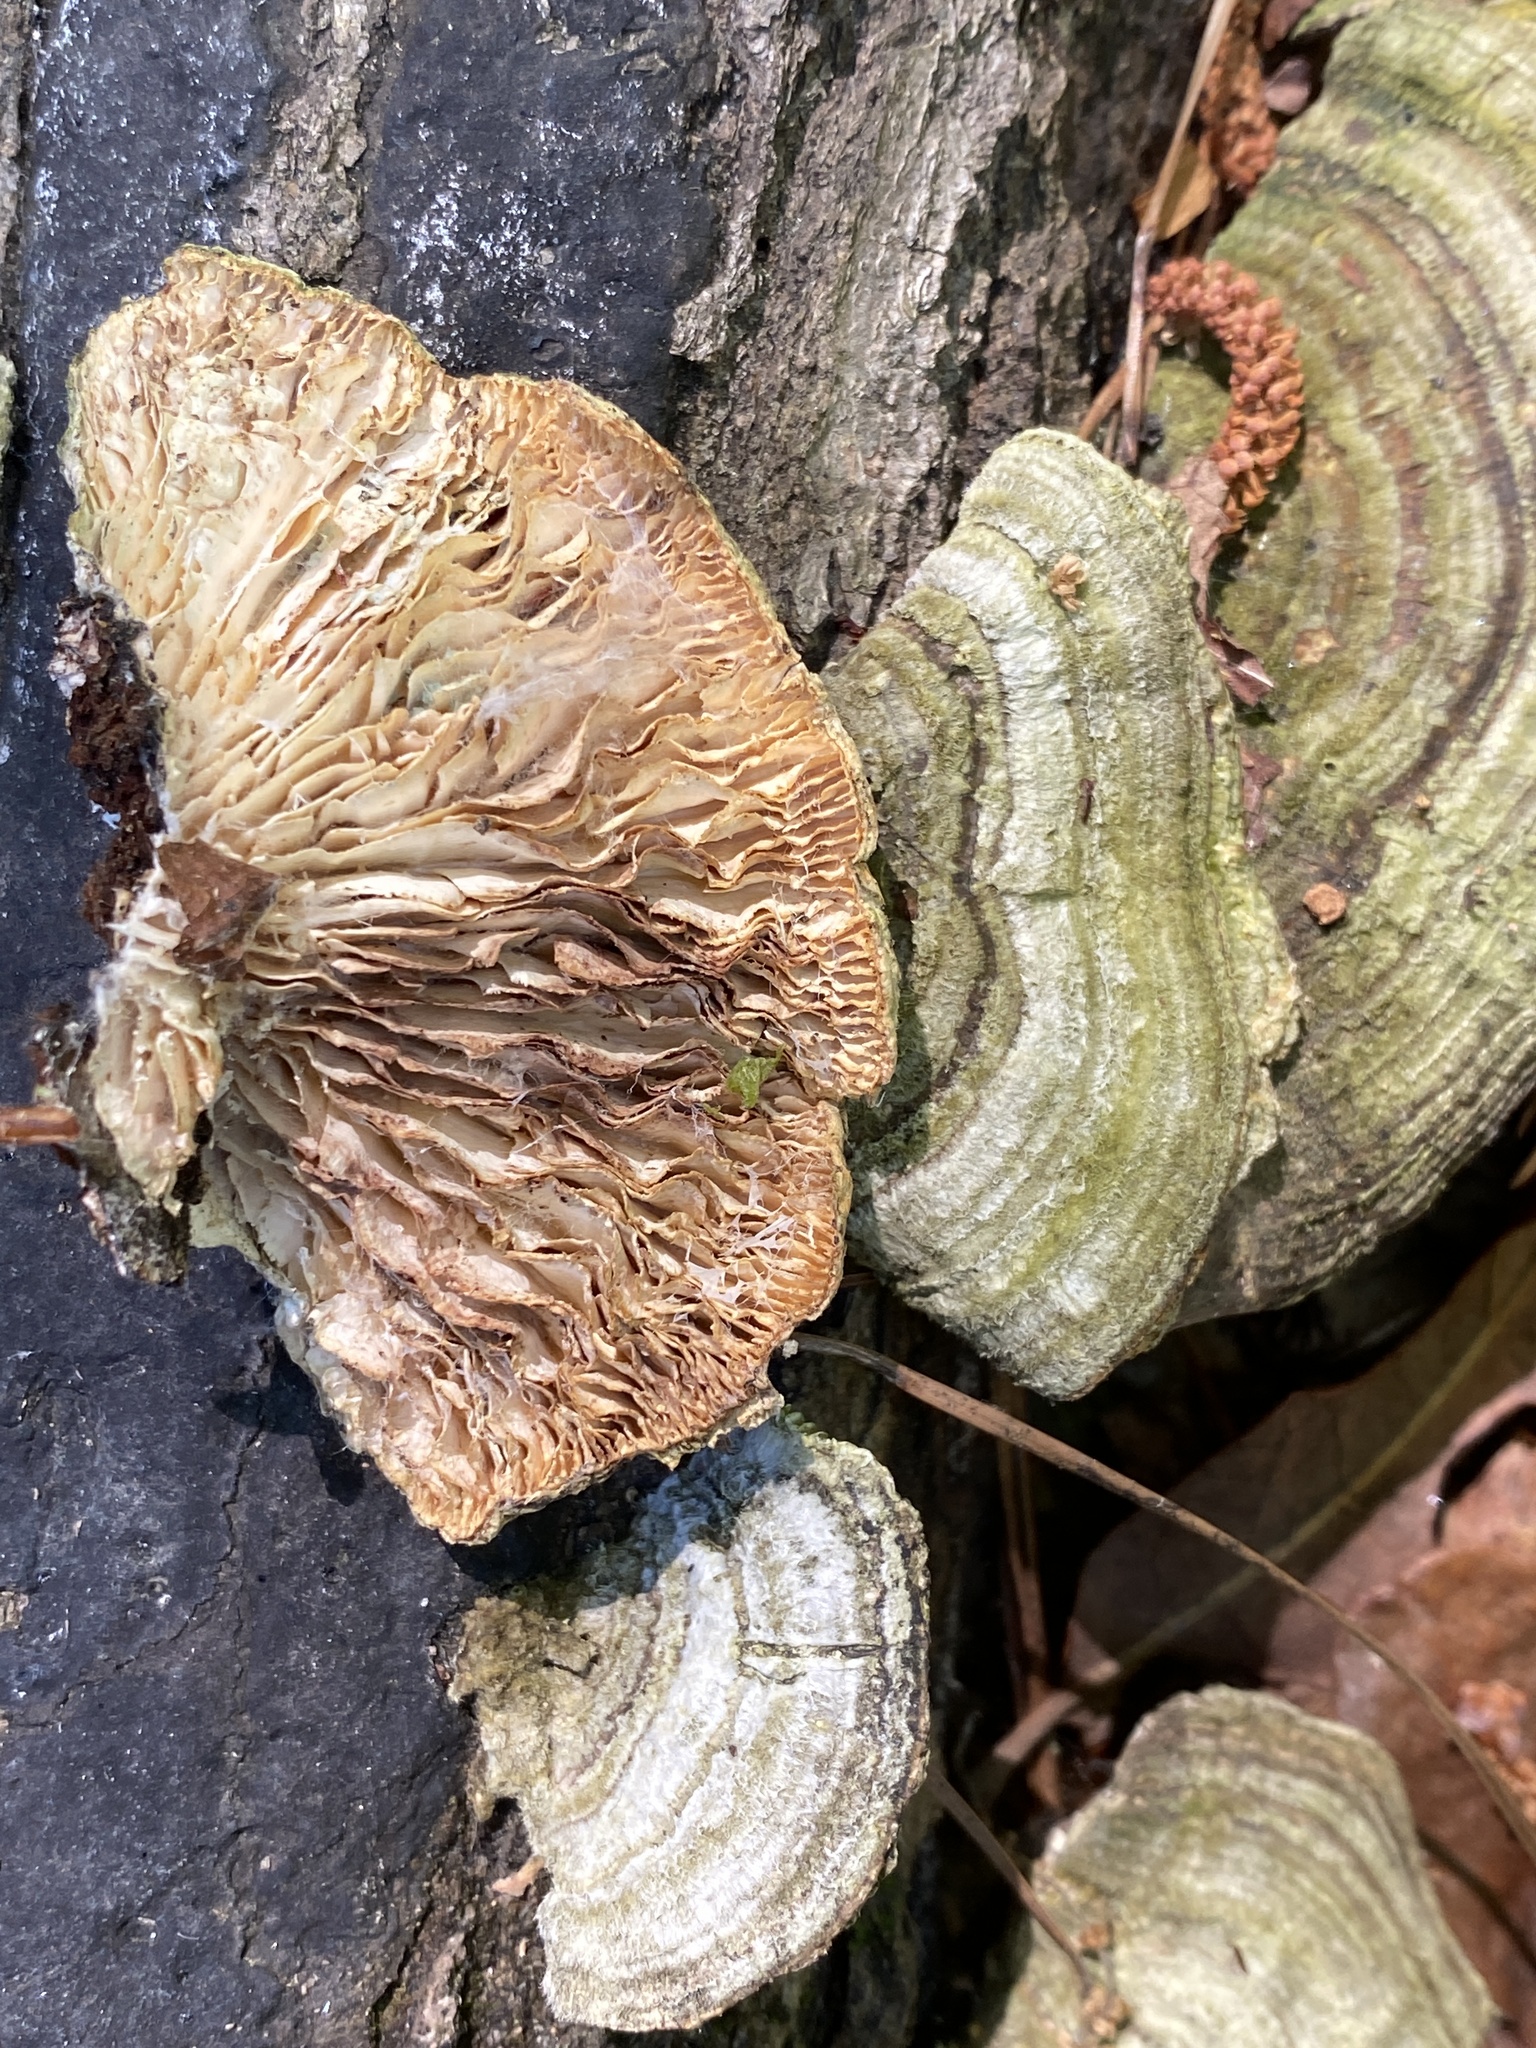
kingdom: Fungi
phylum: Basidiomycota
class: Agaricomycetes
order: Polyporales
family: Polyporaceae
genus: Lenzites
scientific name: Lenzites betulinus
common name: Birch mazegill
